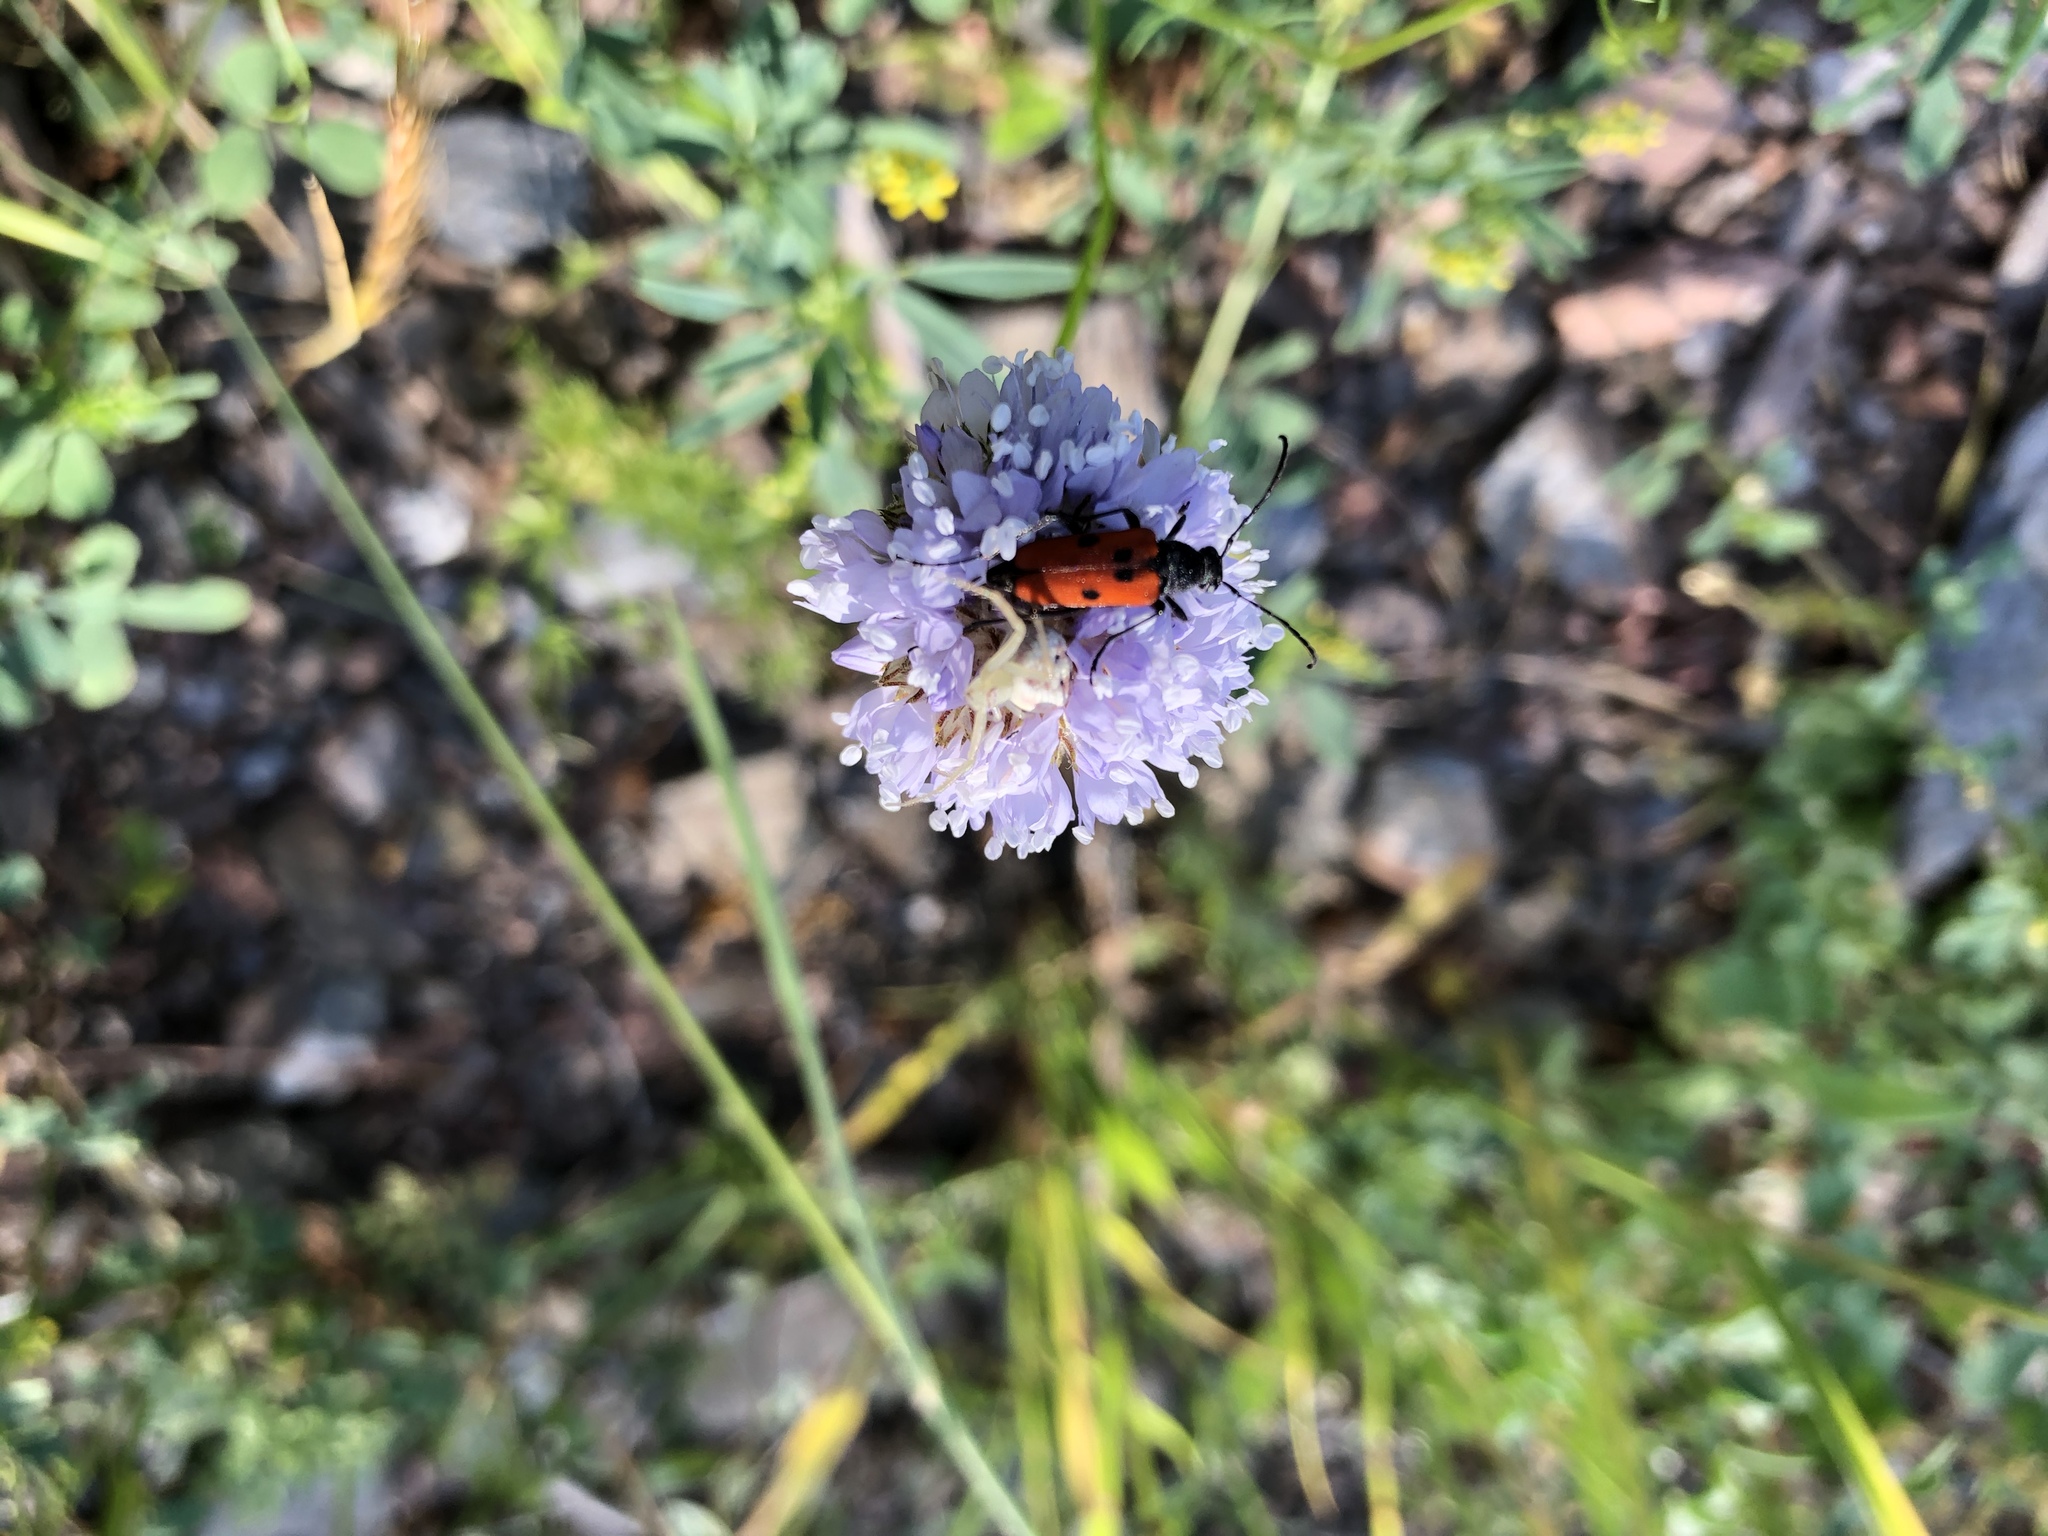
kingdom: Animalia
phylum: Arthropoda
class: Insecta
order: Coleoptera
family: Cerambycidae
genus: Anastrangalia
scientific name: Anastrangalia laetifica
